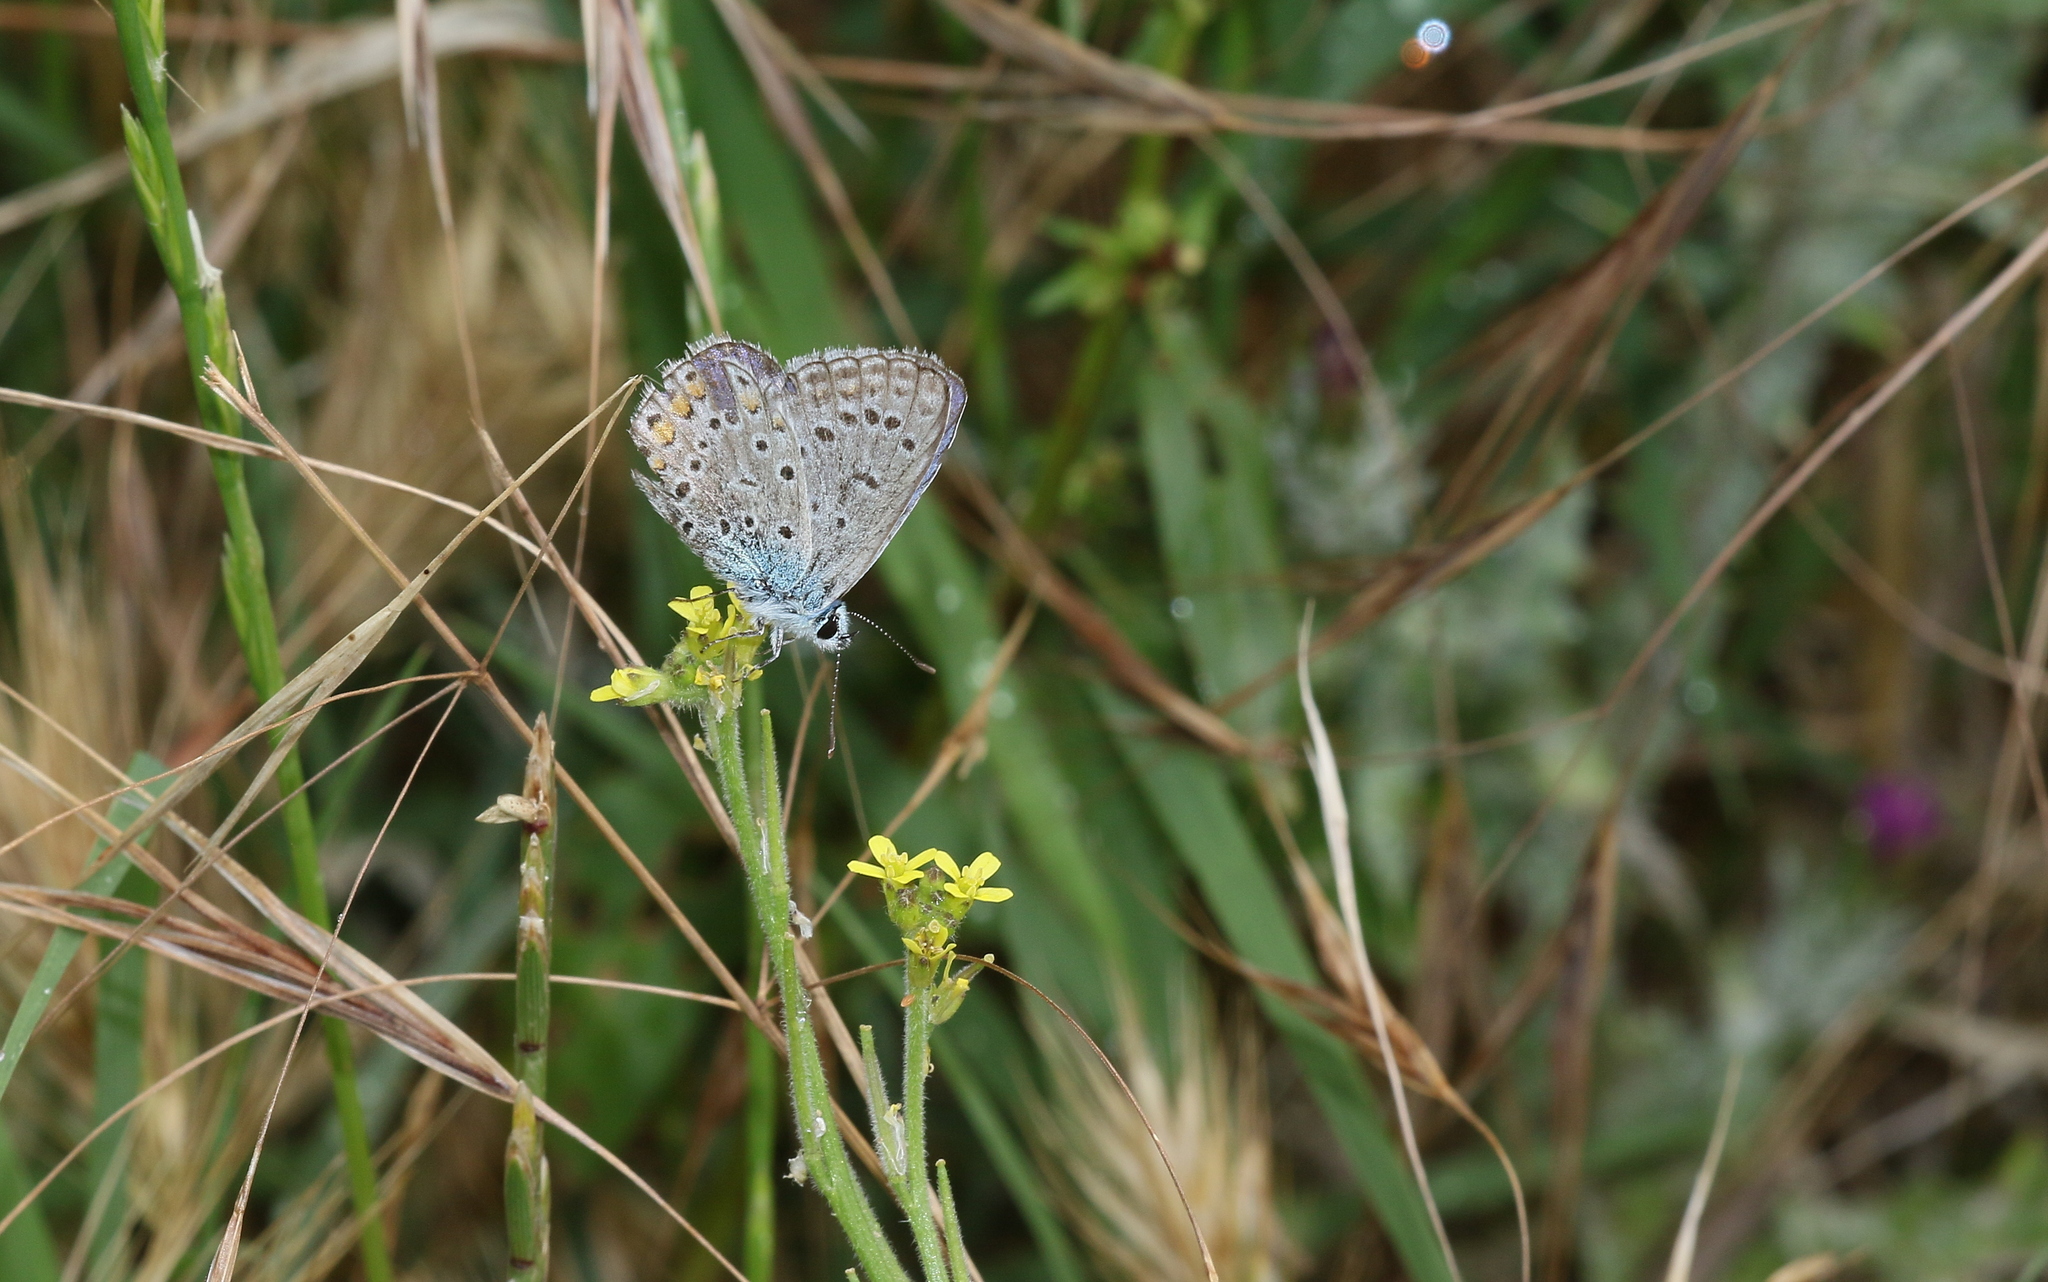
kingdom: Animalia
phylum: Arthropoda
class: Insecta
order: Lepidoptera
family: Lycaenidae
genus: Polyommatus
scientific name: Polyommatus icarus
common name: Common blue
